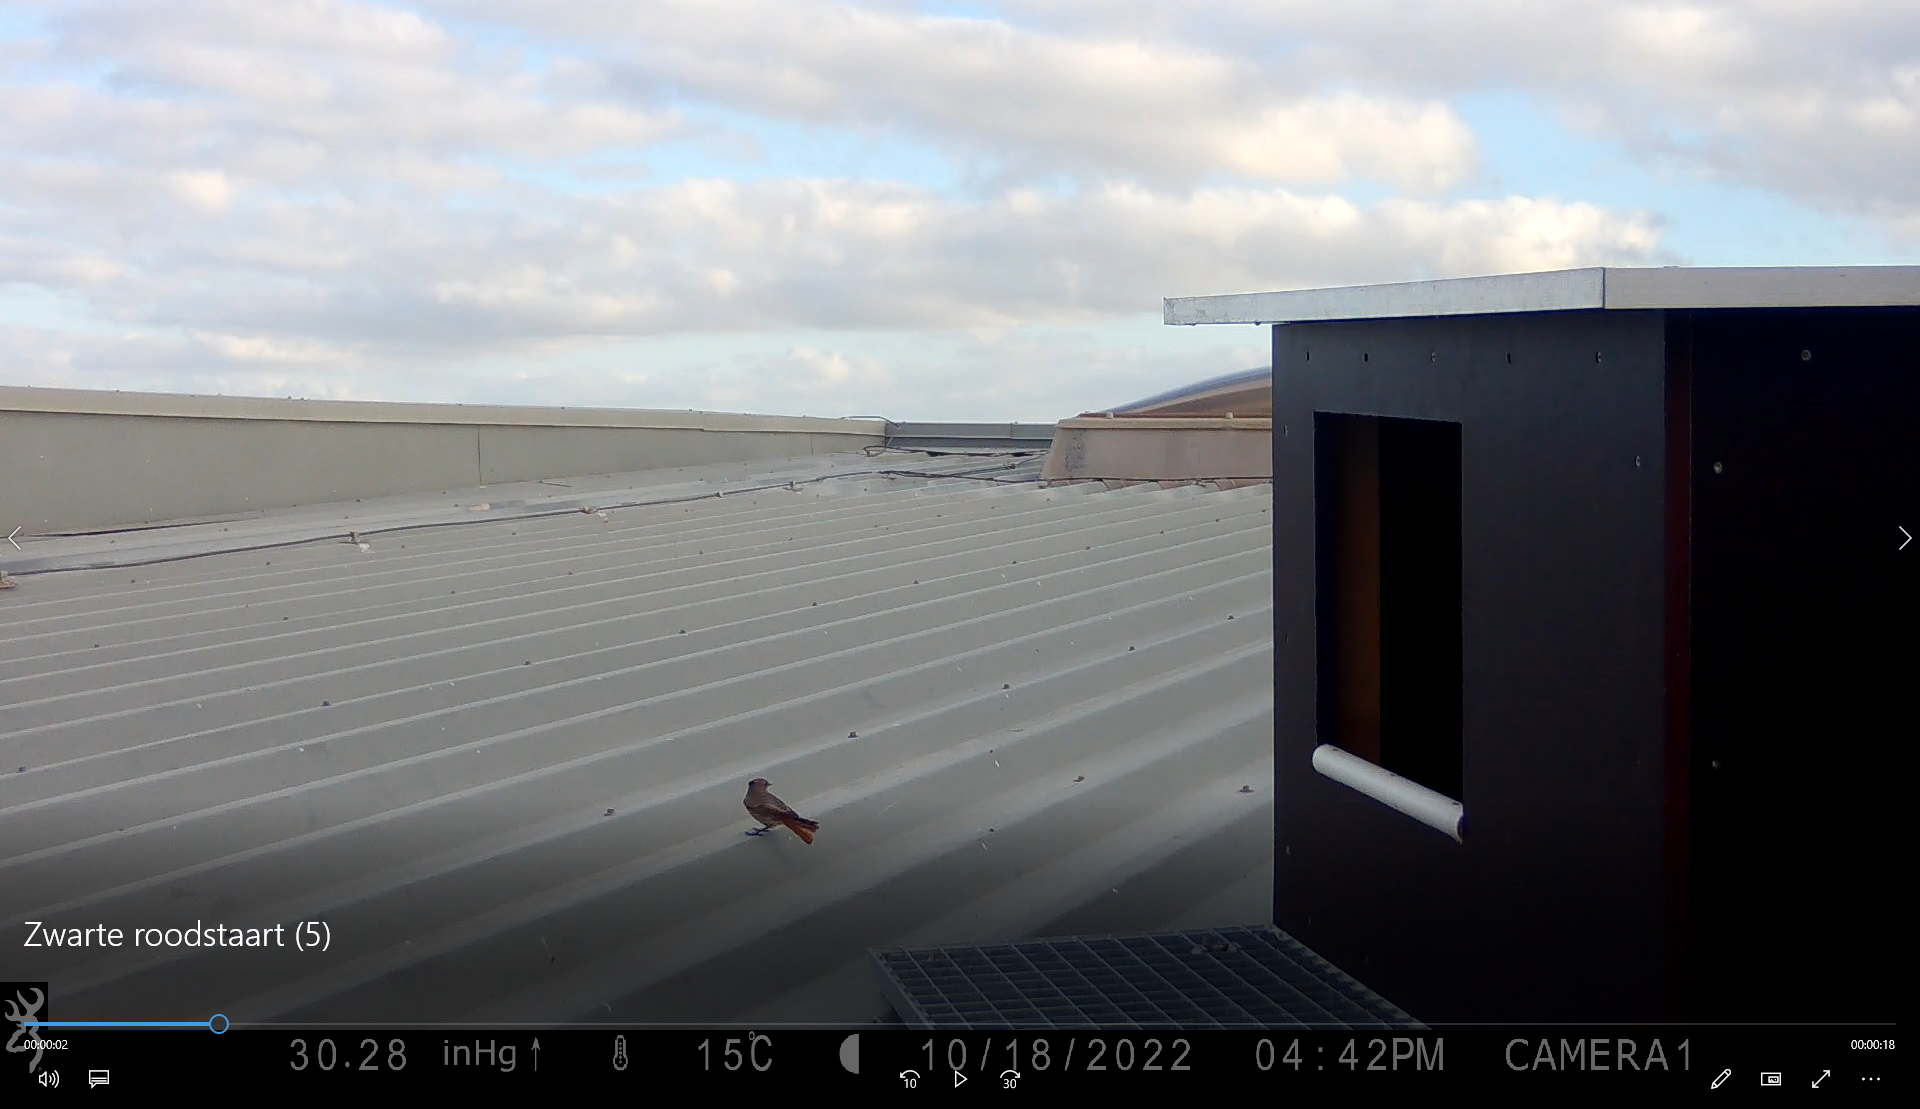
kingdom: Animalia
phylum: Chordata
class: Aves
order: Passeriformes
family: Muscicapidae
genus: Phoenicurus
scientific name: Phoenicurus ochruros
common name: Black redstart
